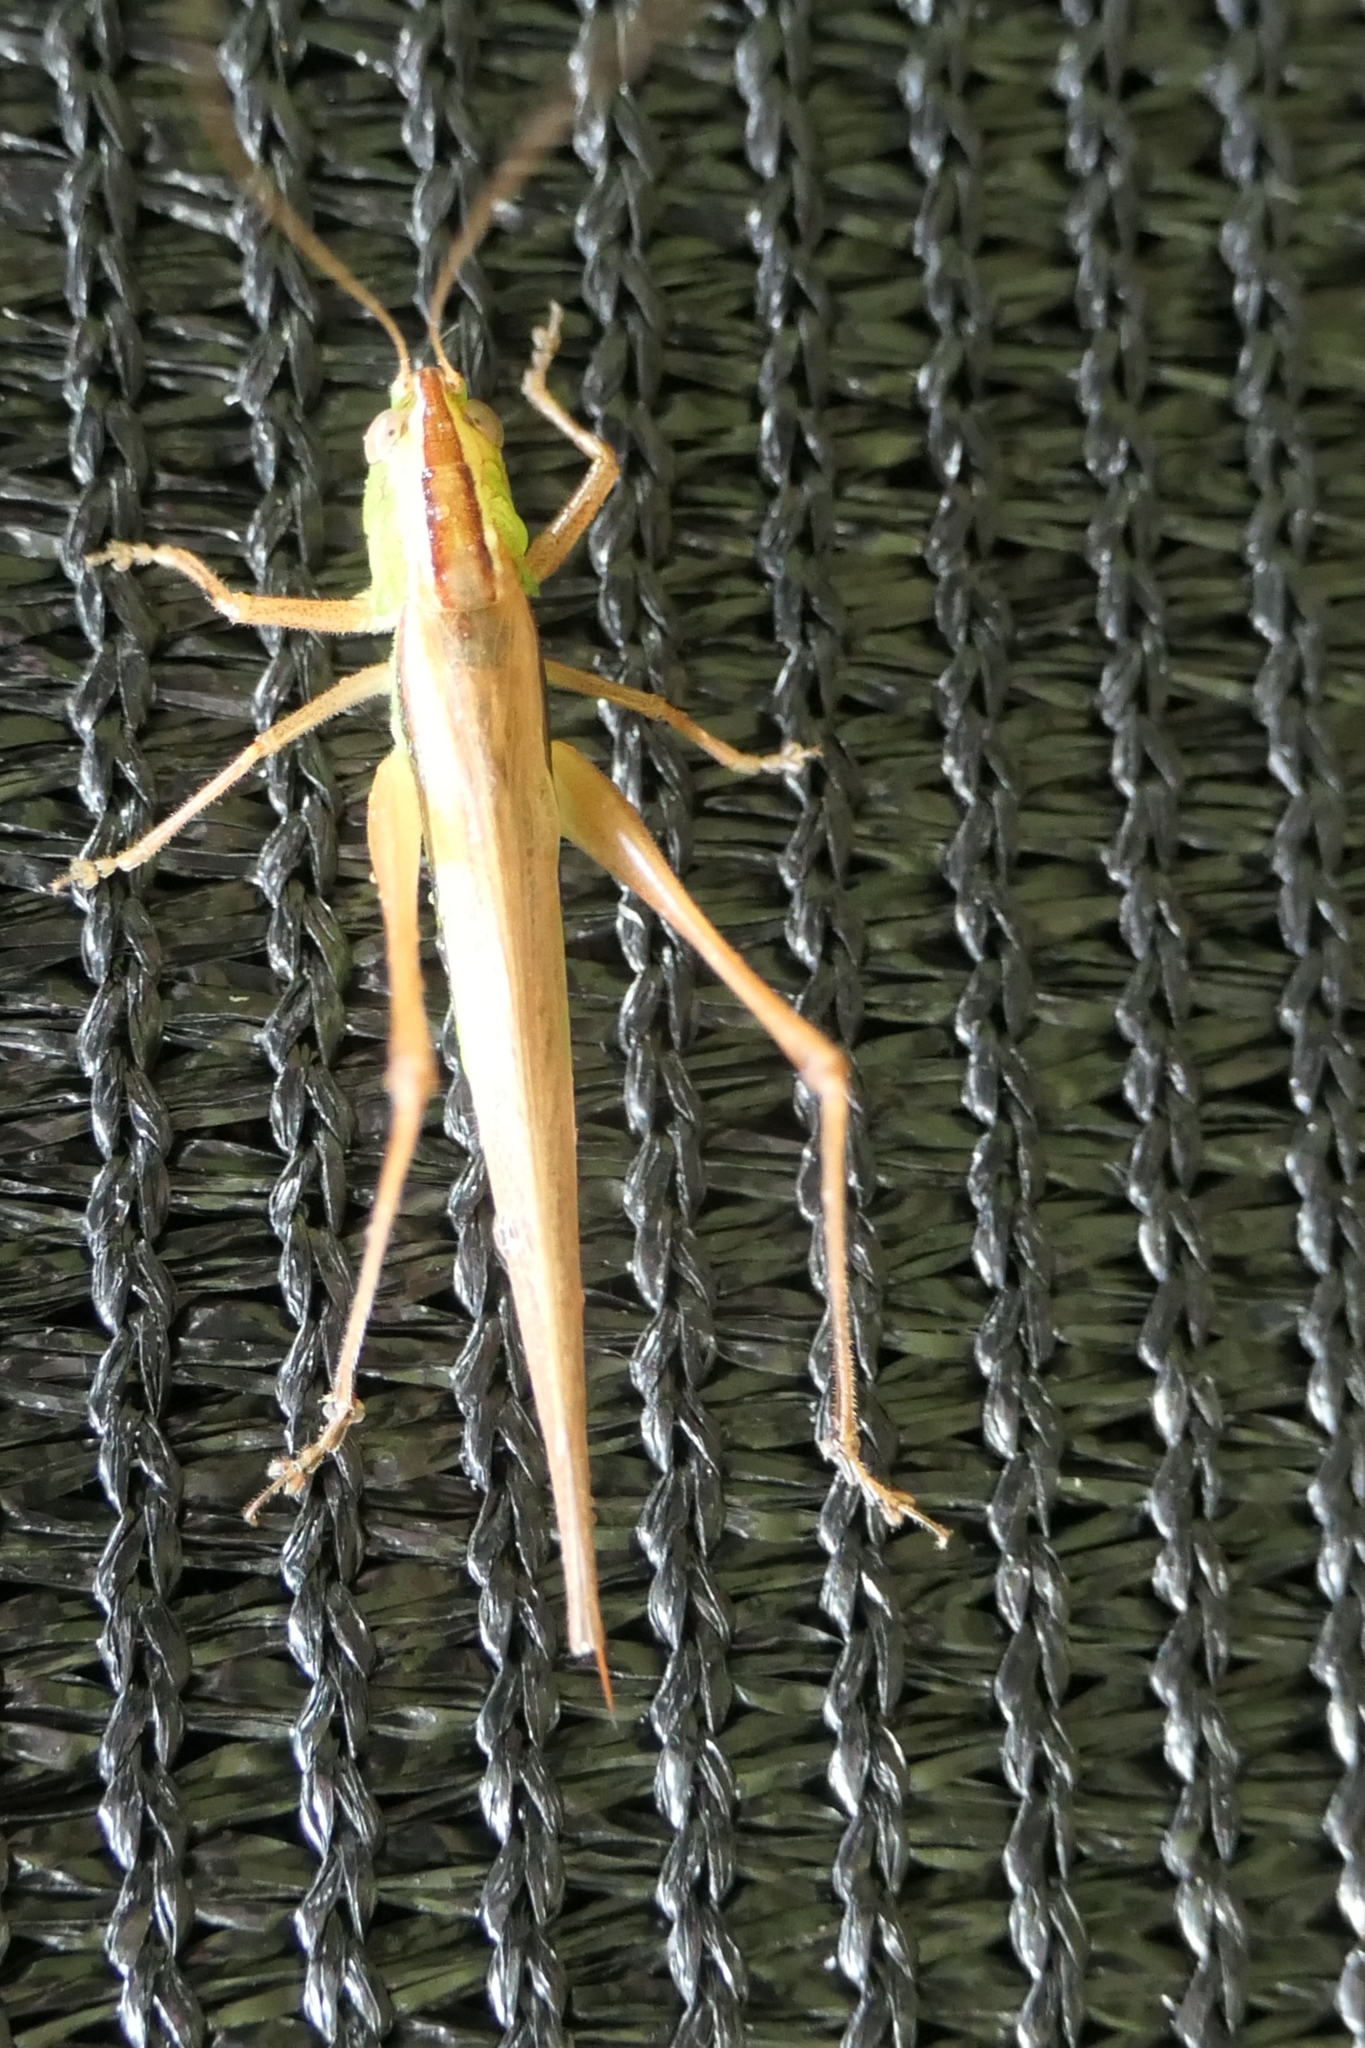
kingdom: Animalia
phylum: Arthropoda
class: Insecta
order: Orthoptera
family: Tettigoniidae
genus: Conocephalus
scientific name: Conocephalus albescens
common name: Whitish meadow katydid
